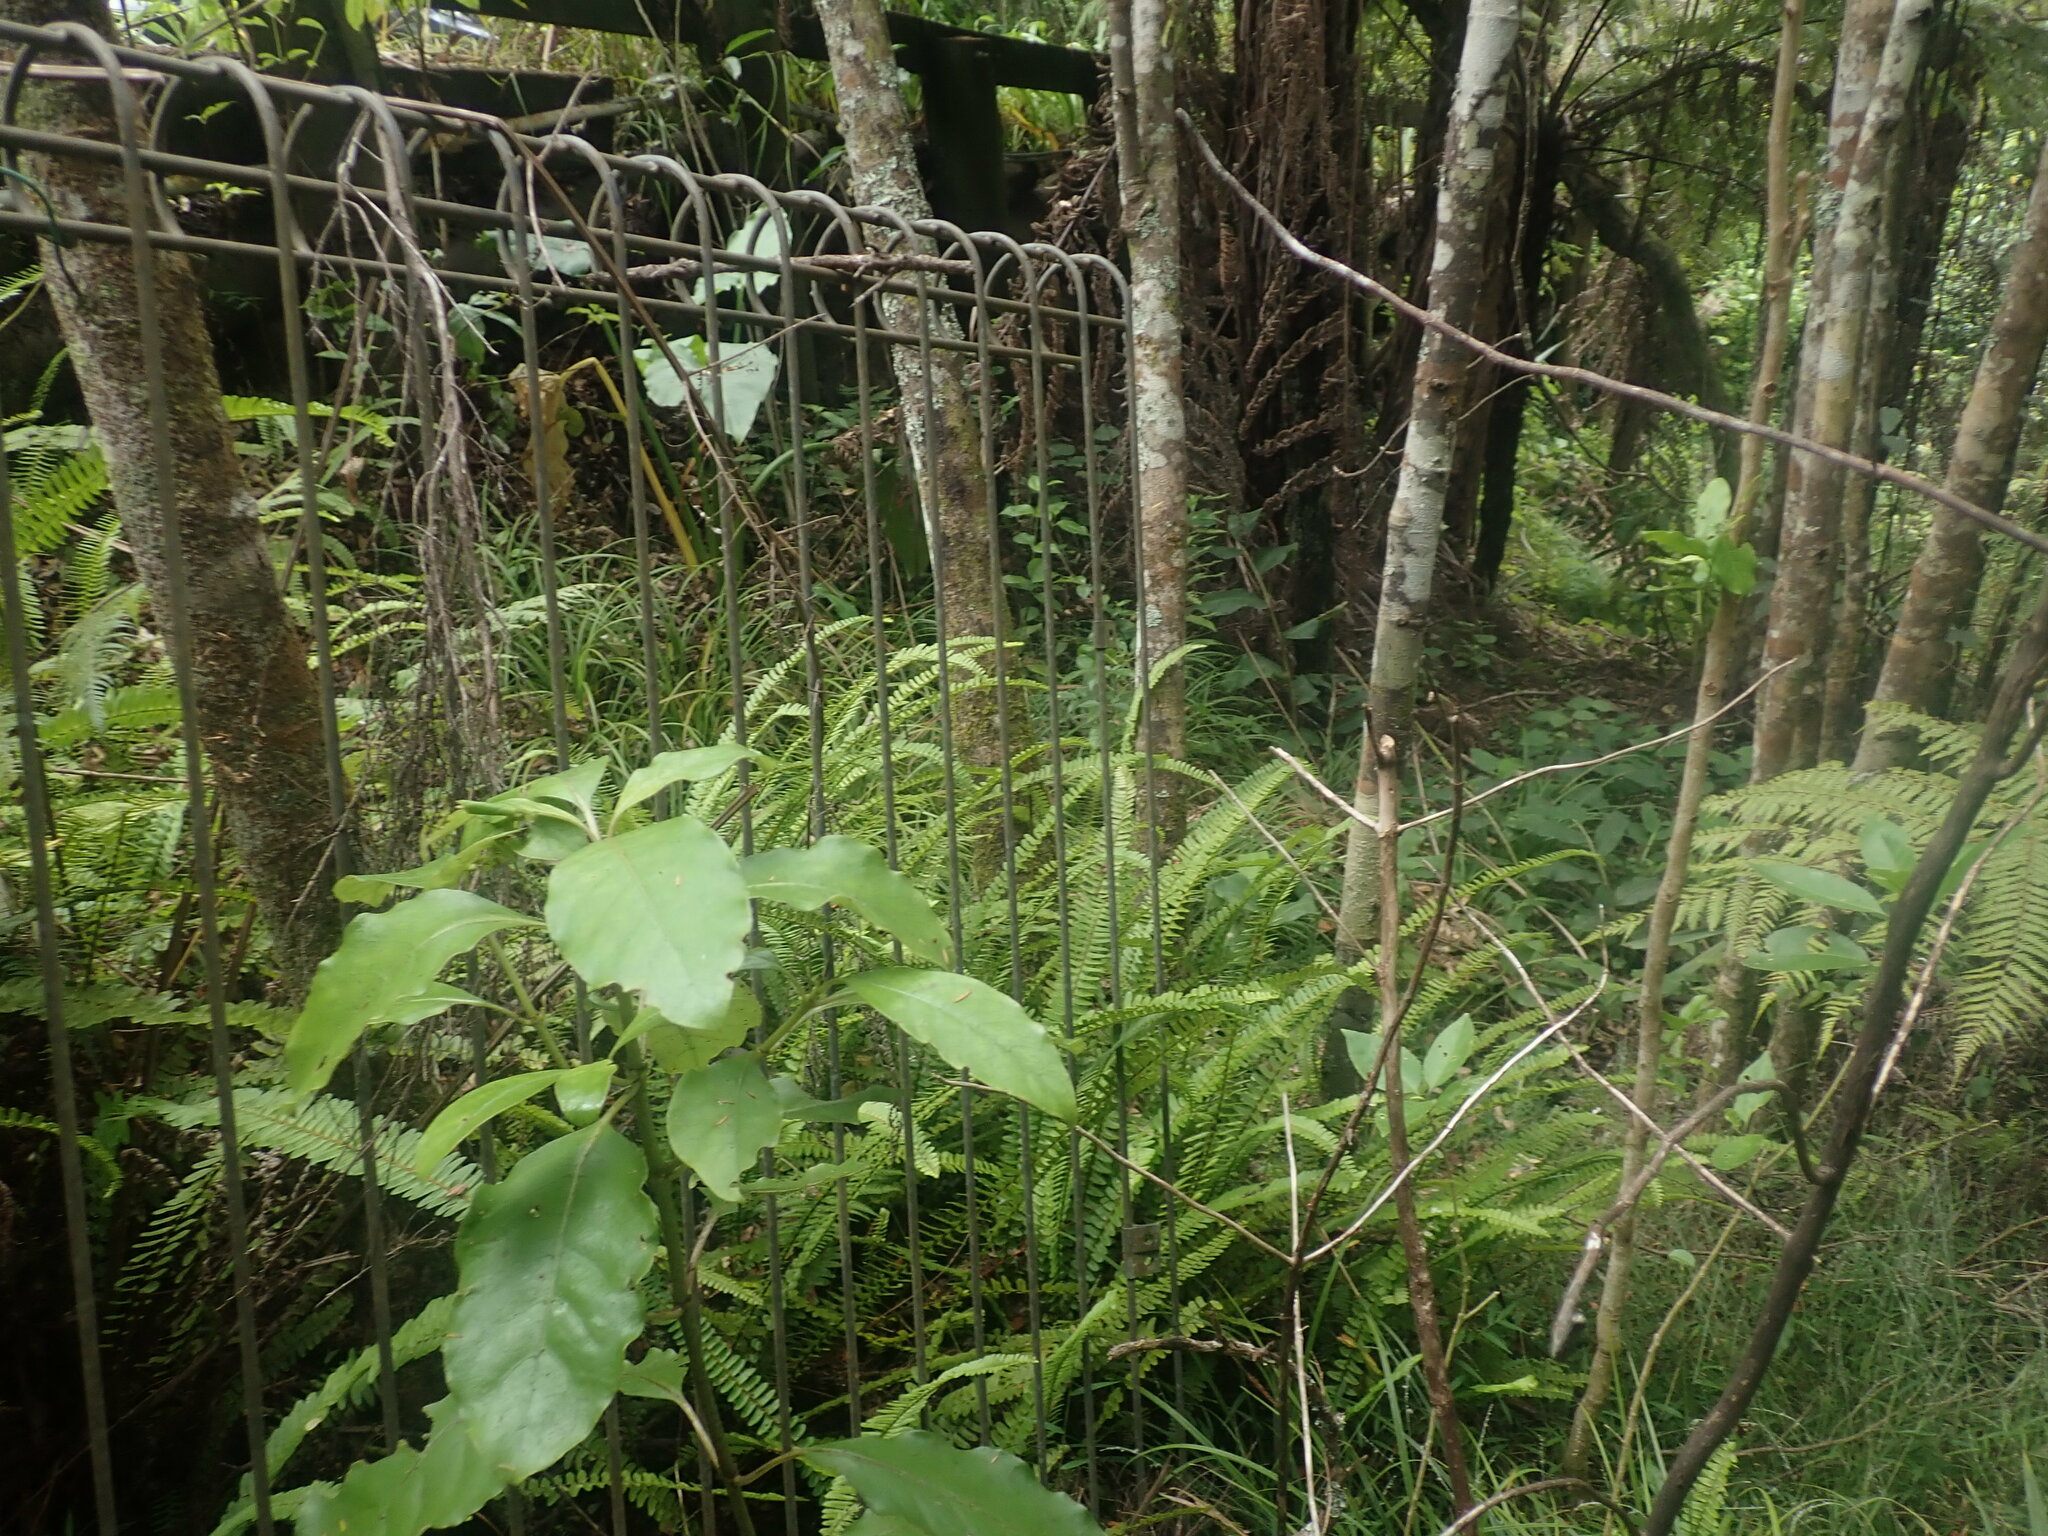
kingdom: Plantae
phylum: Tracheophyta
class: Magnoliopsida
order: Gentianales
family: Rubiaceae
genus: Coprosma
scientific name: Coprosma autumnalis
